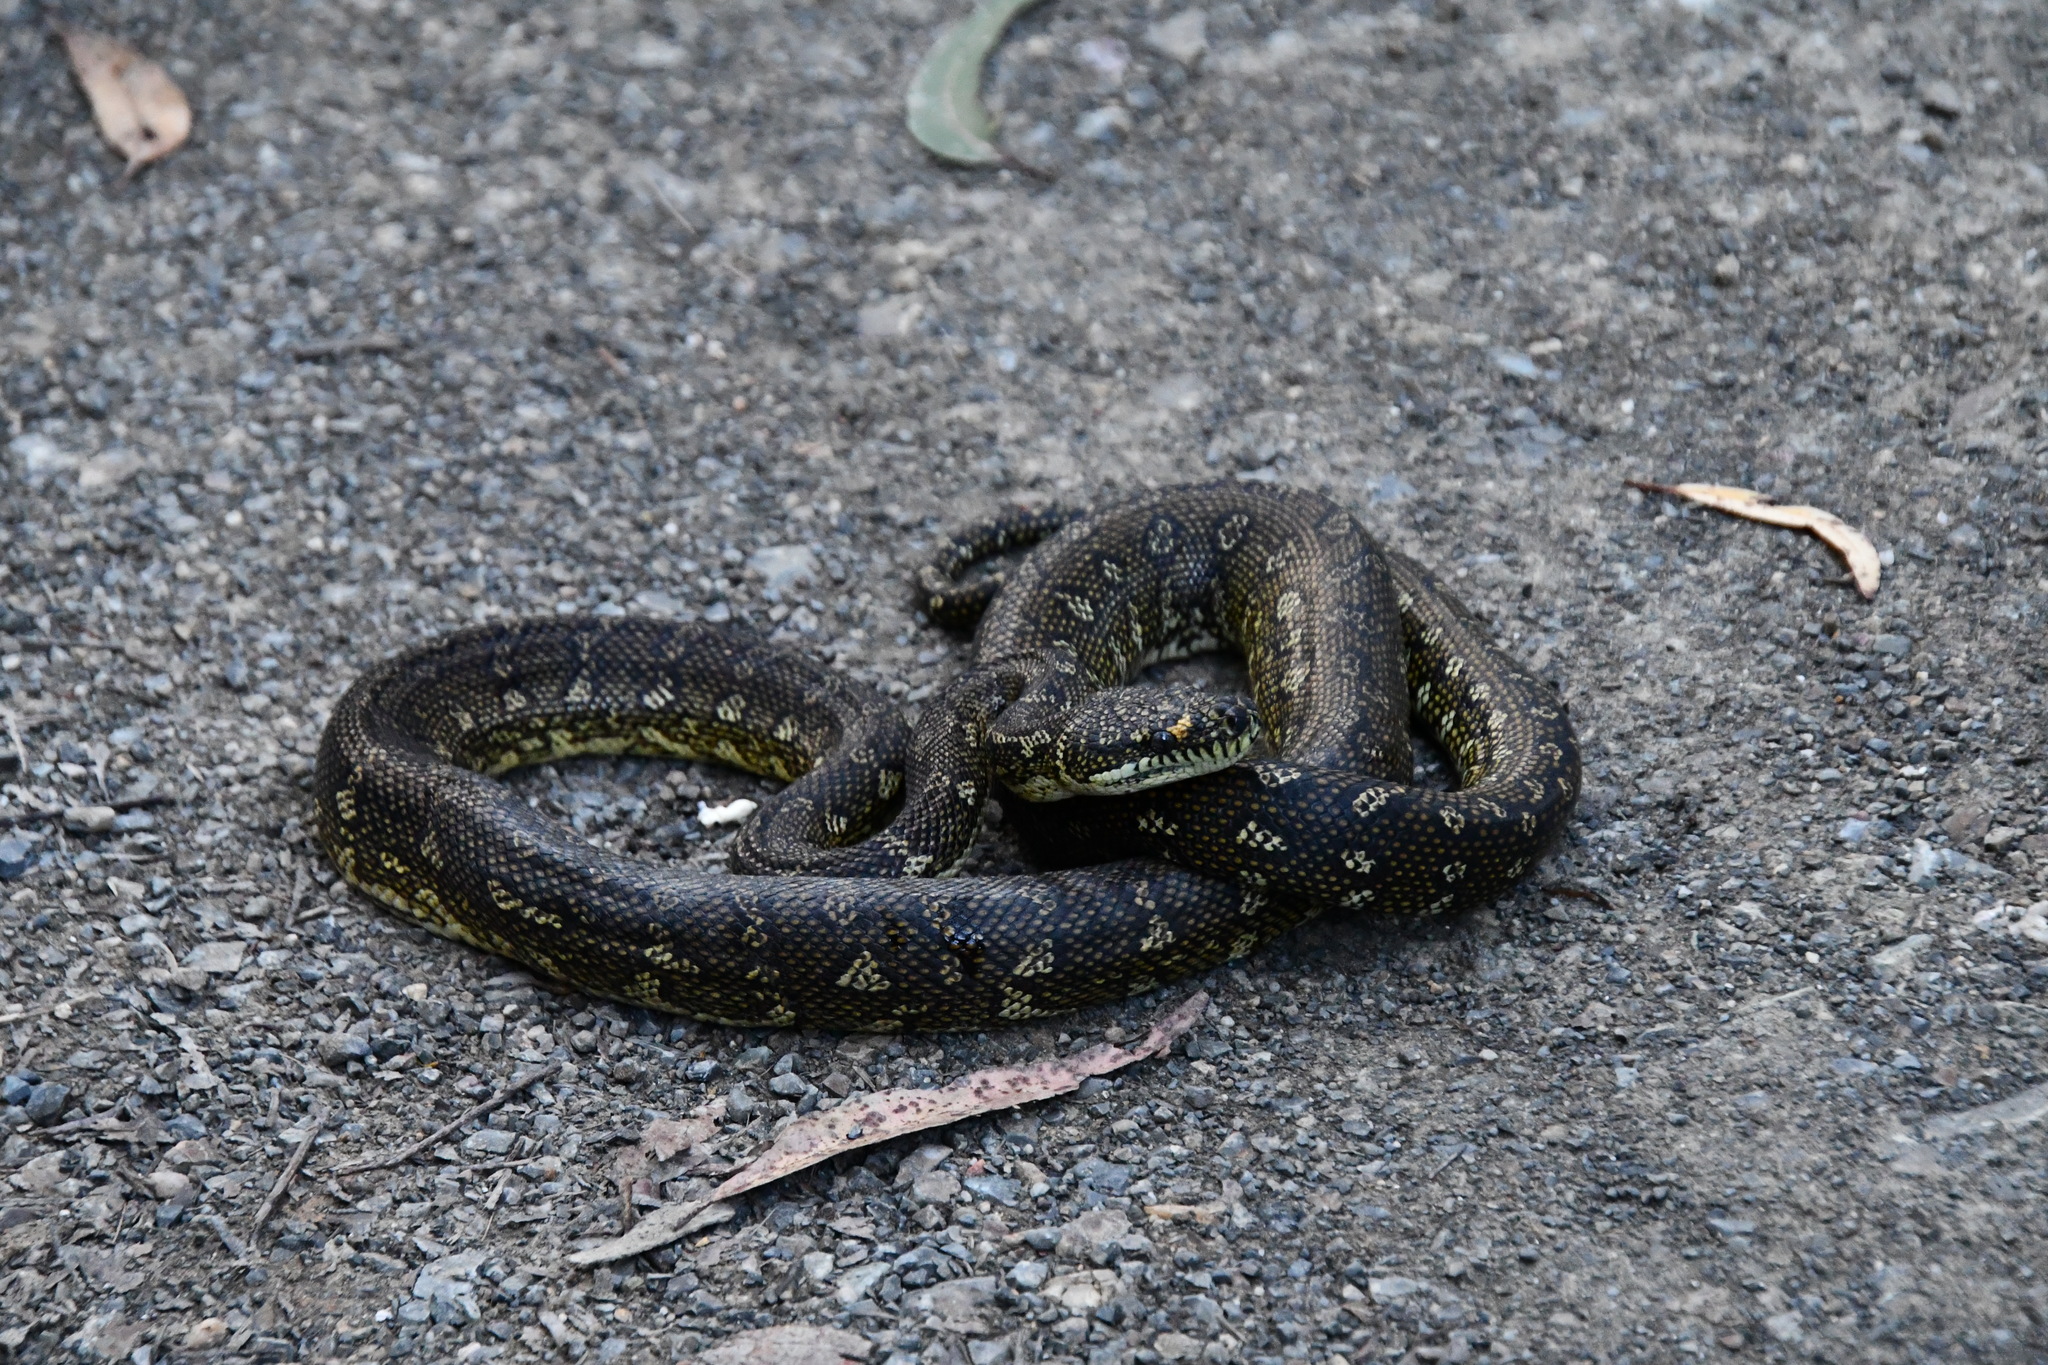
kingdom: Animalia
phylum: Chordata
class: Squamata
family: Pythonidae
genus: Morelia
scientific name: Morelia spilota
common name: Carpet python
